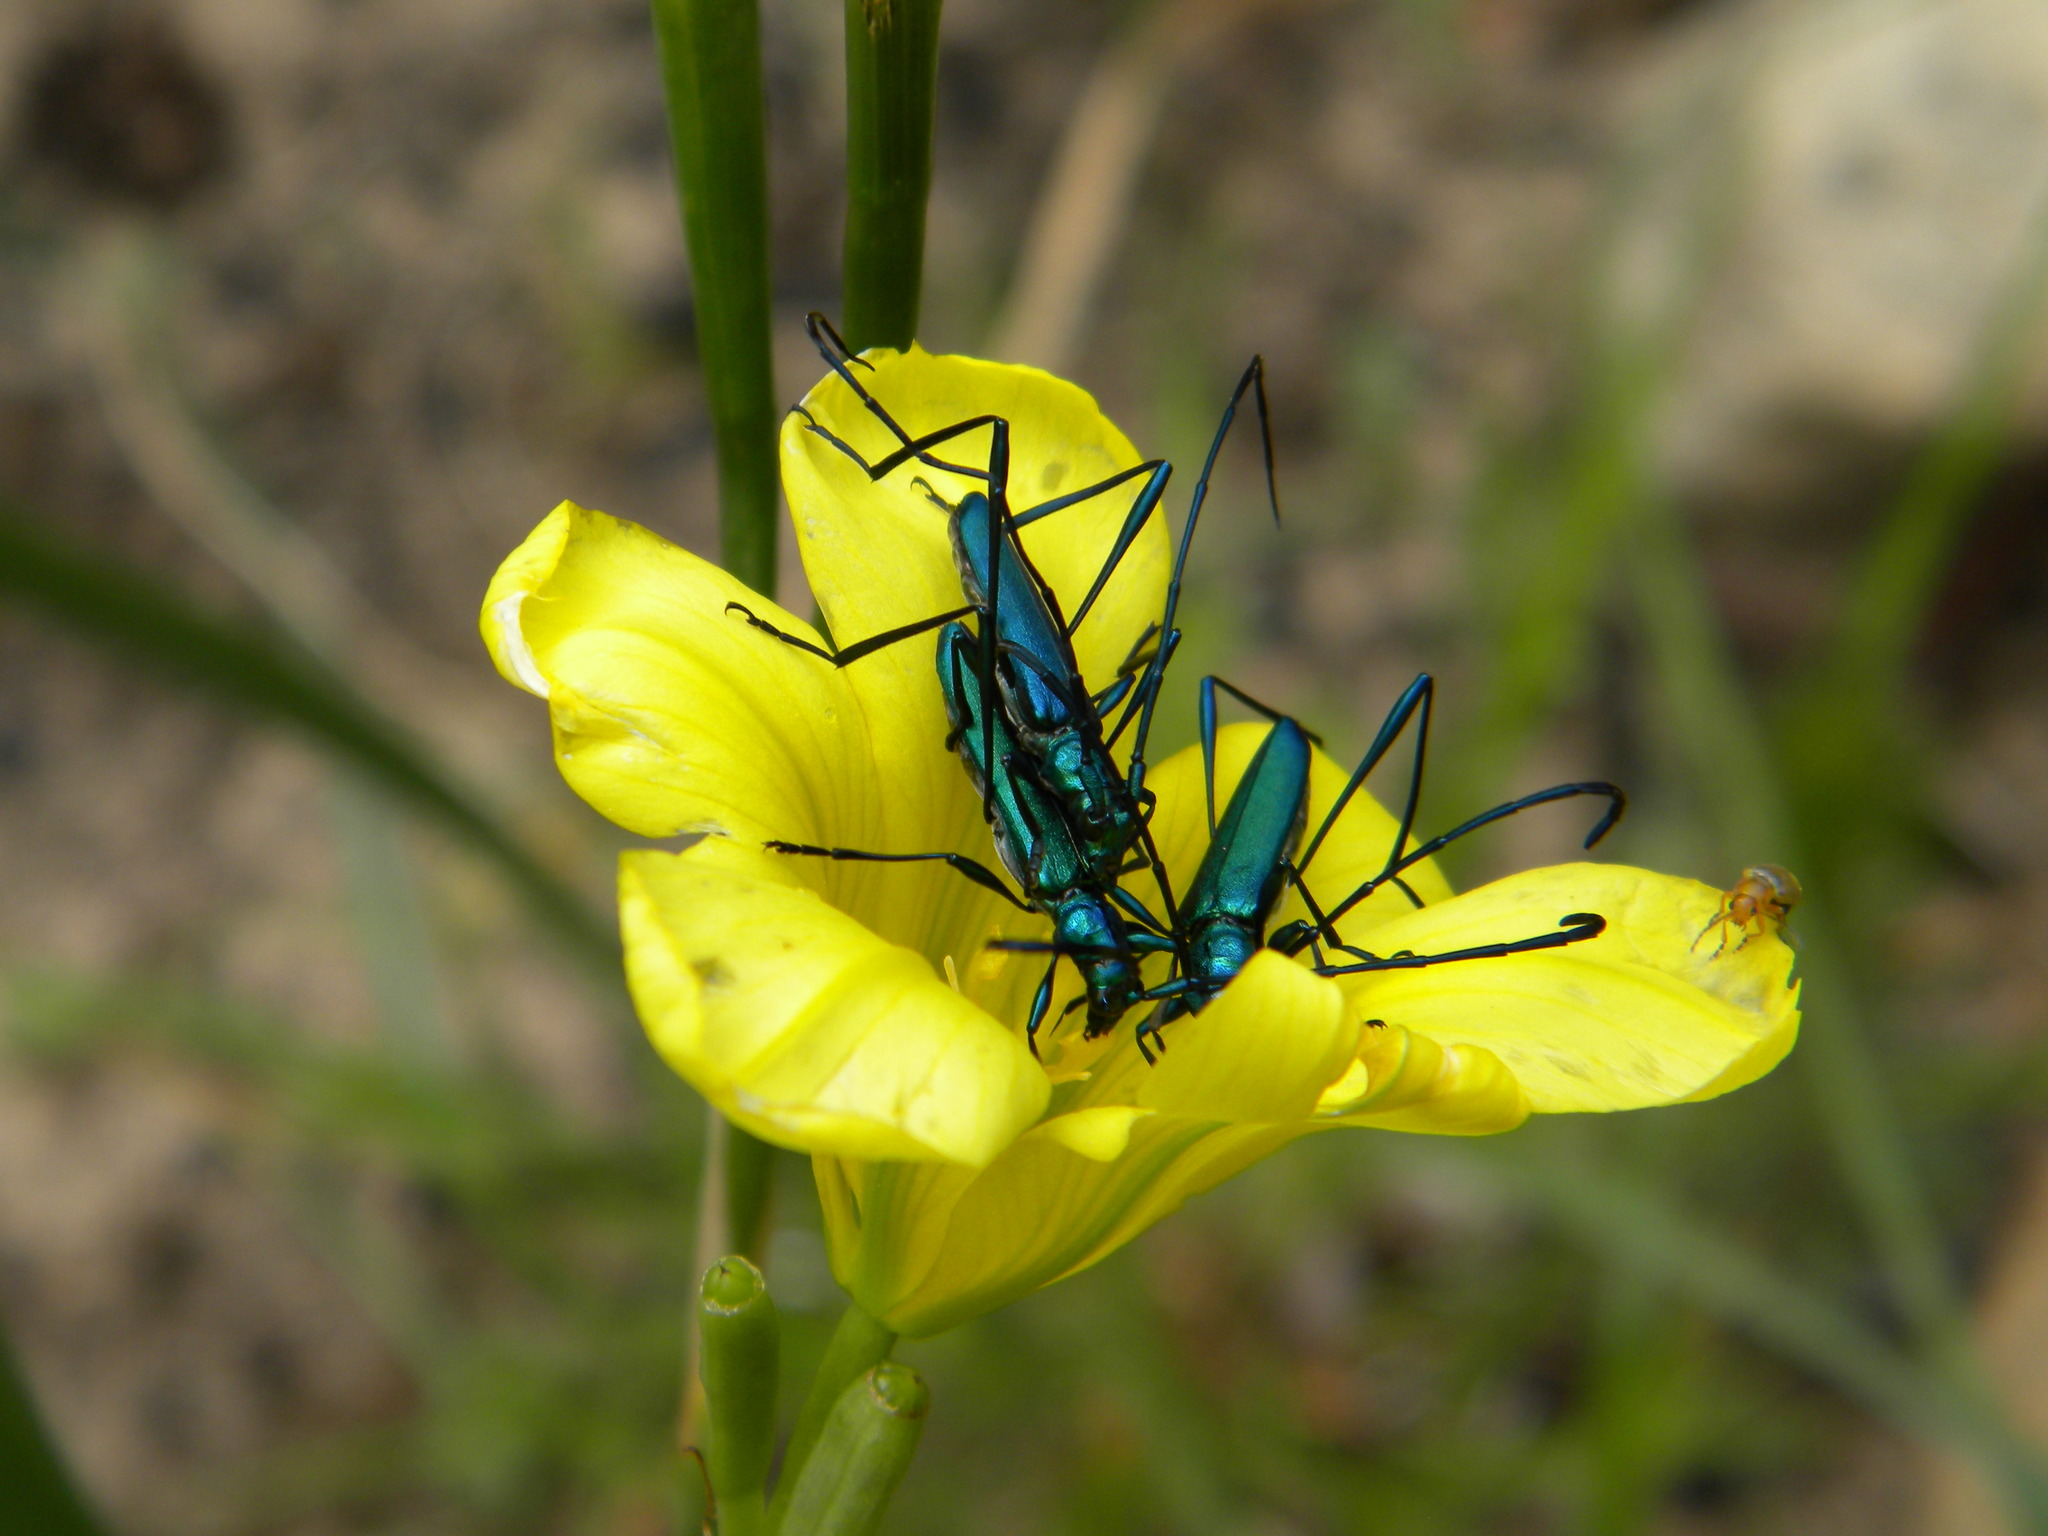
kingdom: Animalia
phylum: Arthropoda
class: Insecta
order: Coleoptera
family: Cerambycidae
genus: Promeces
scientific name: Promeces longipes
